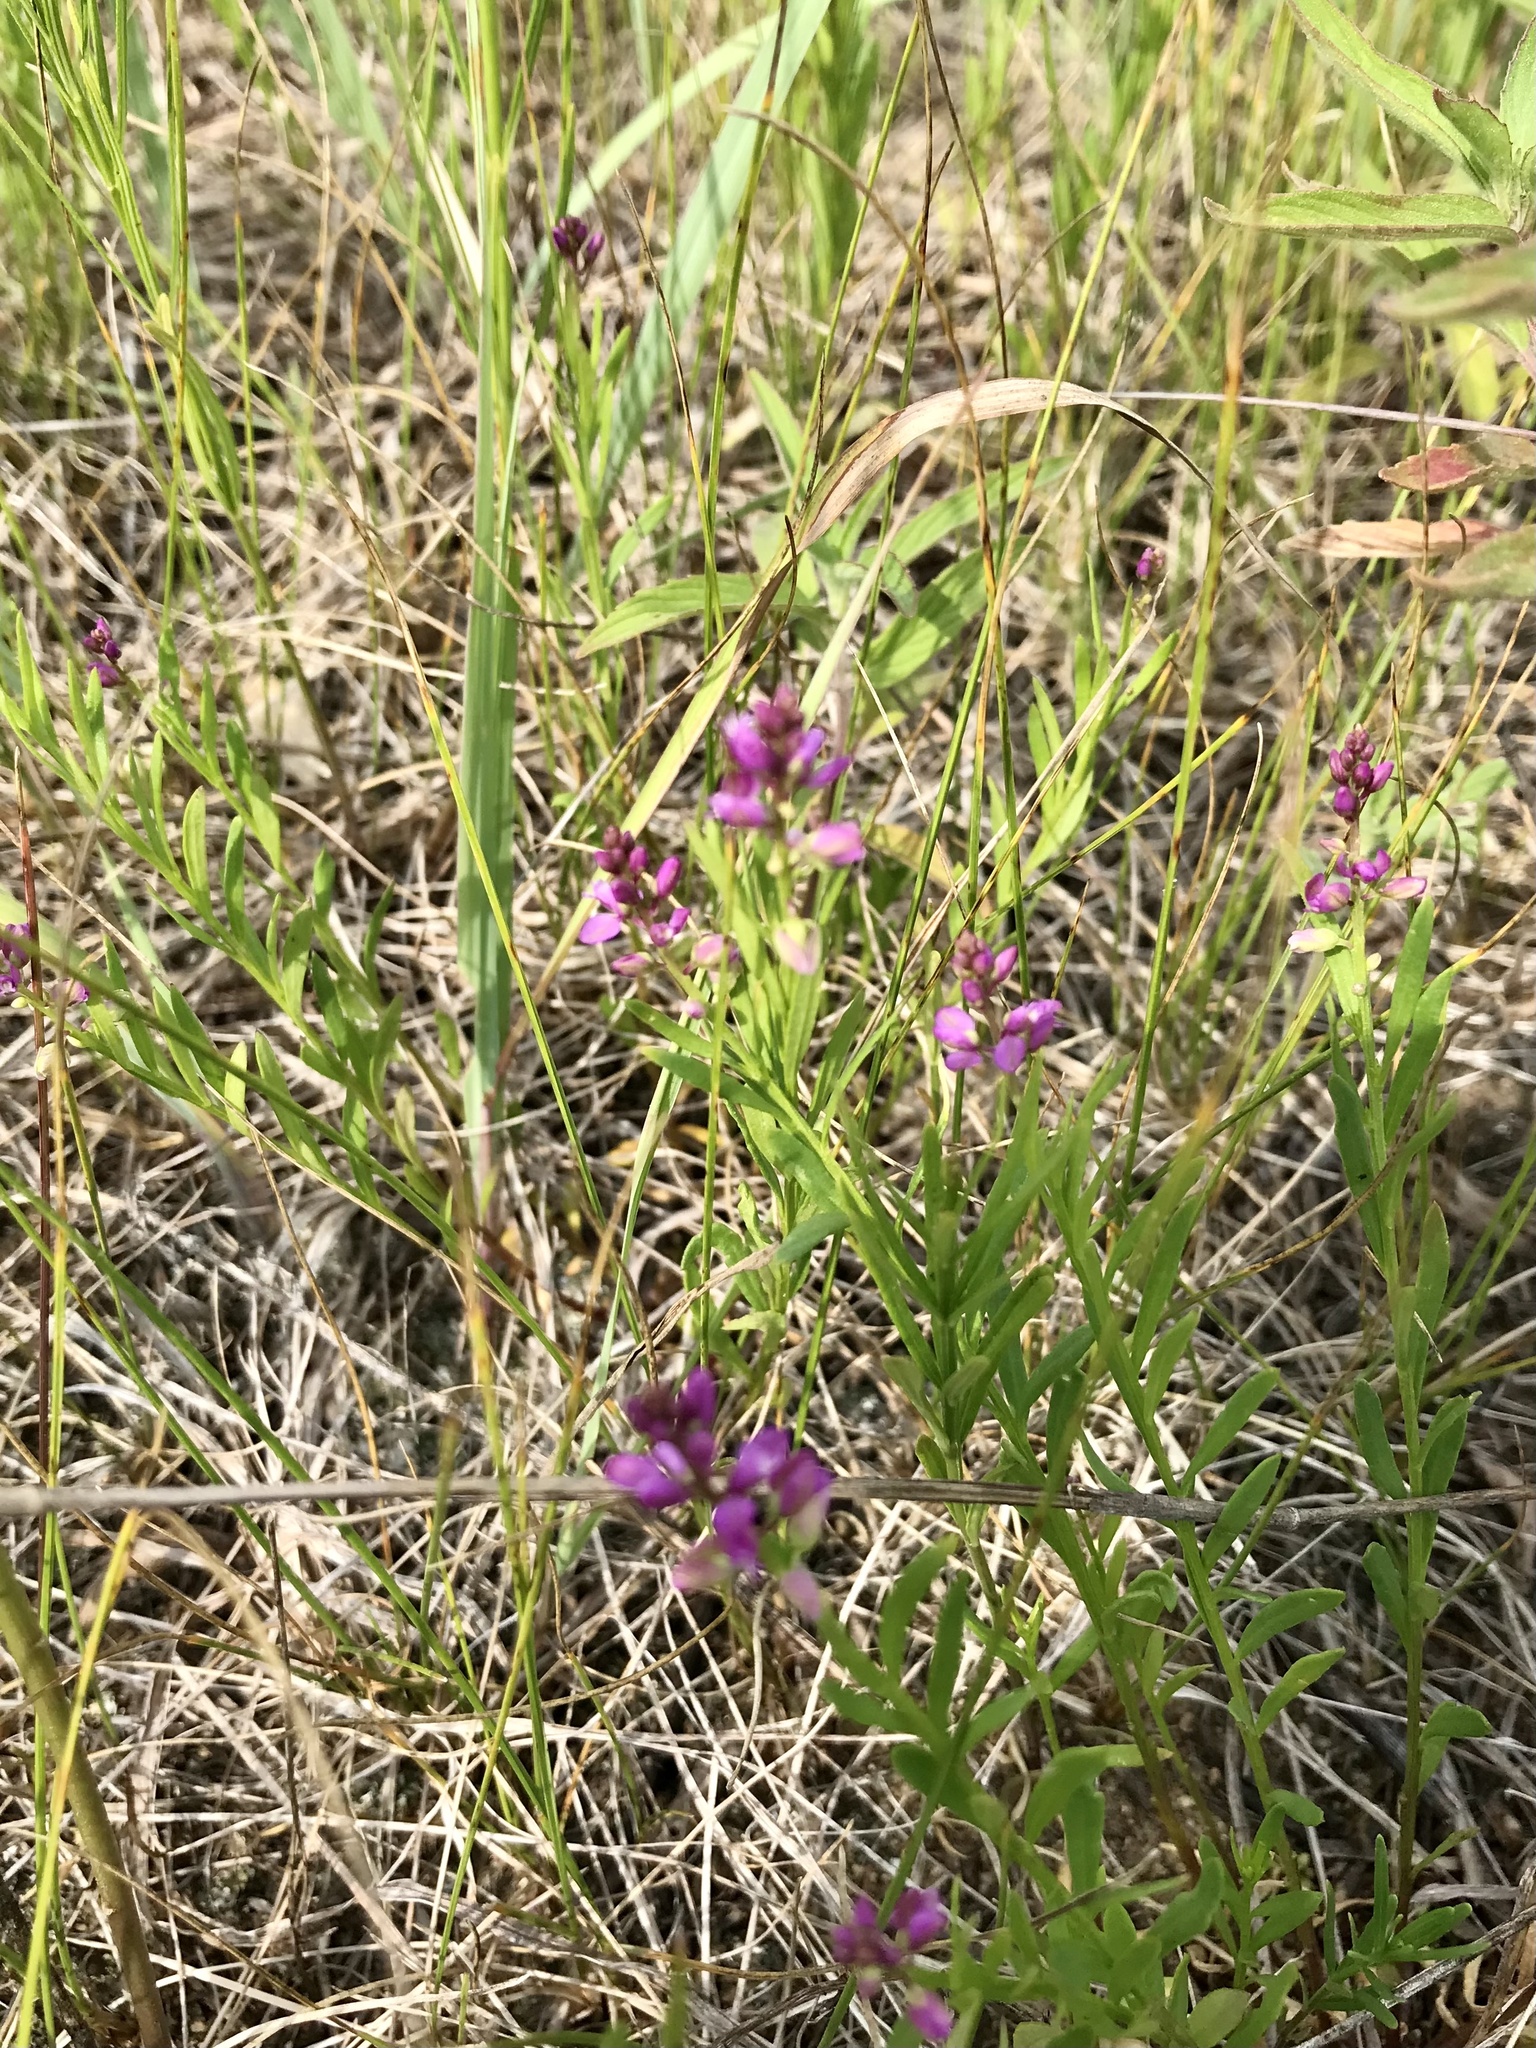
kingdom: Plantae
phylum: Tracheophyta
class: Magnoliopsida
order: Fabales
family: Polygalaceae
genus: Polygala
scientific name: Polygala polygama
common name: Bitter milkwort
